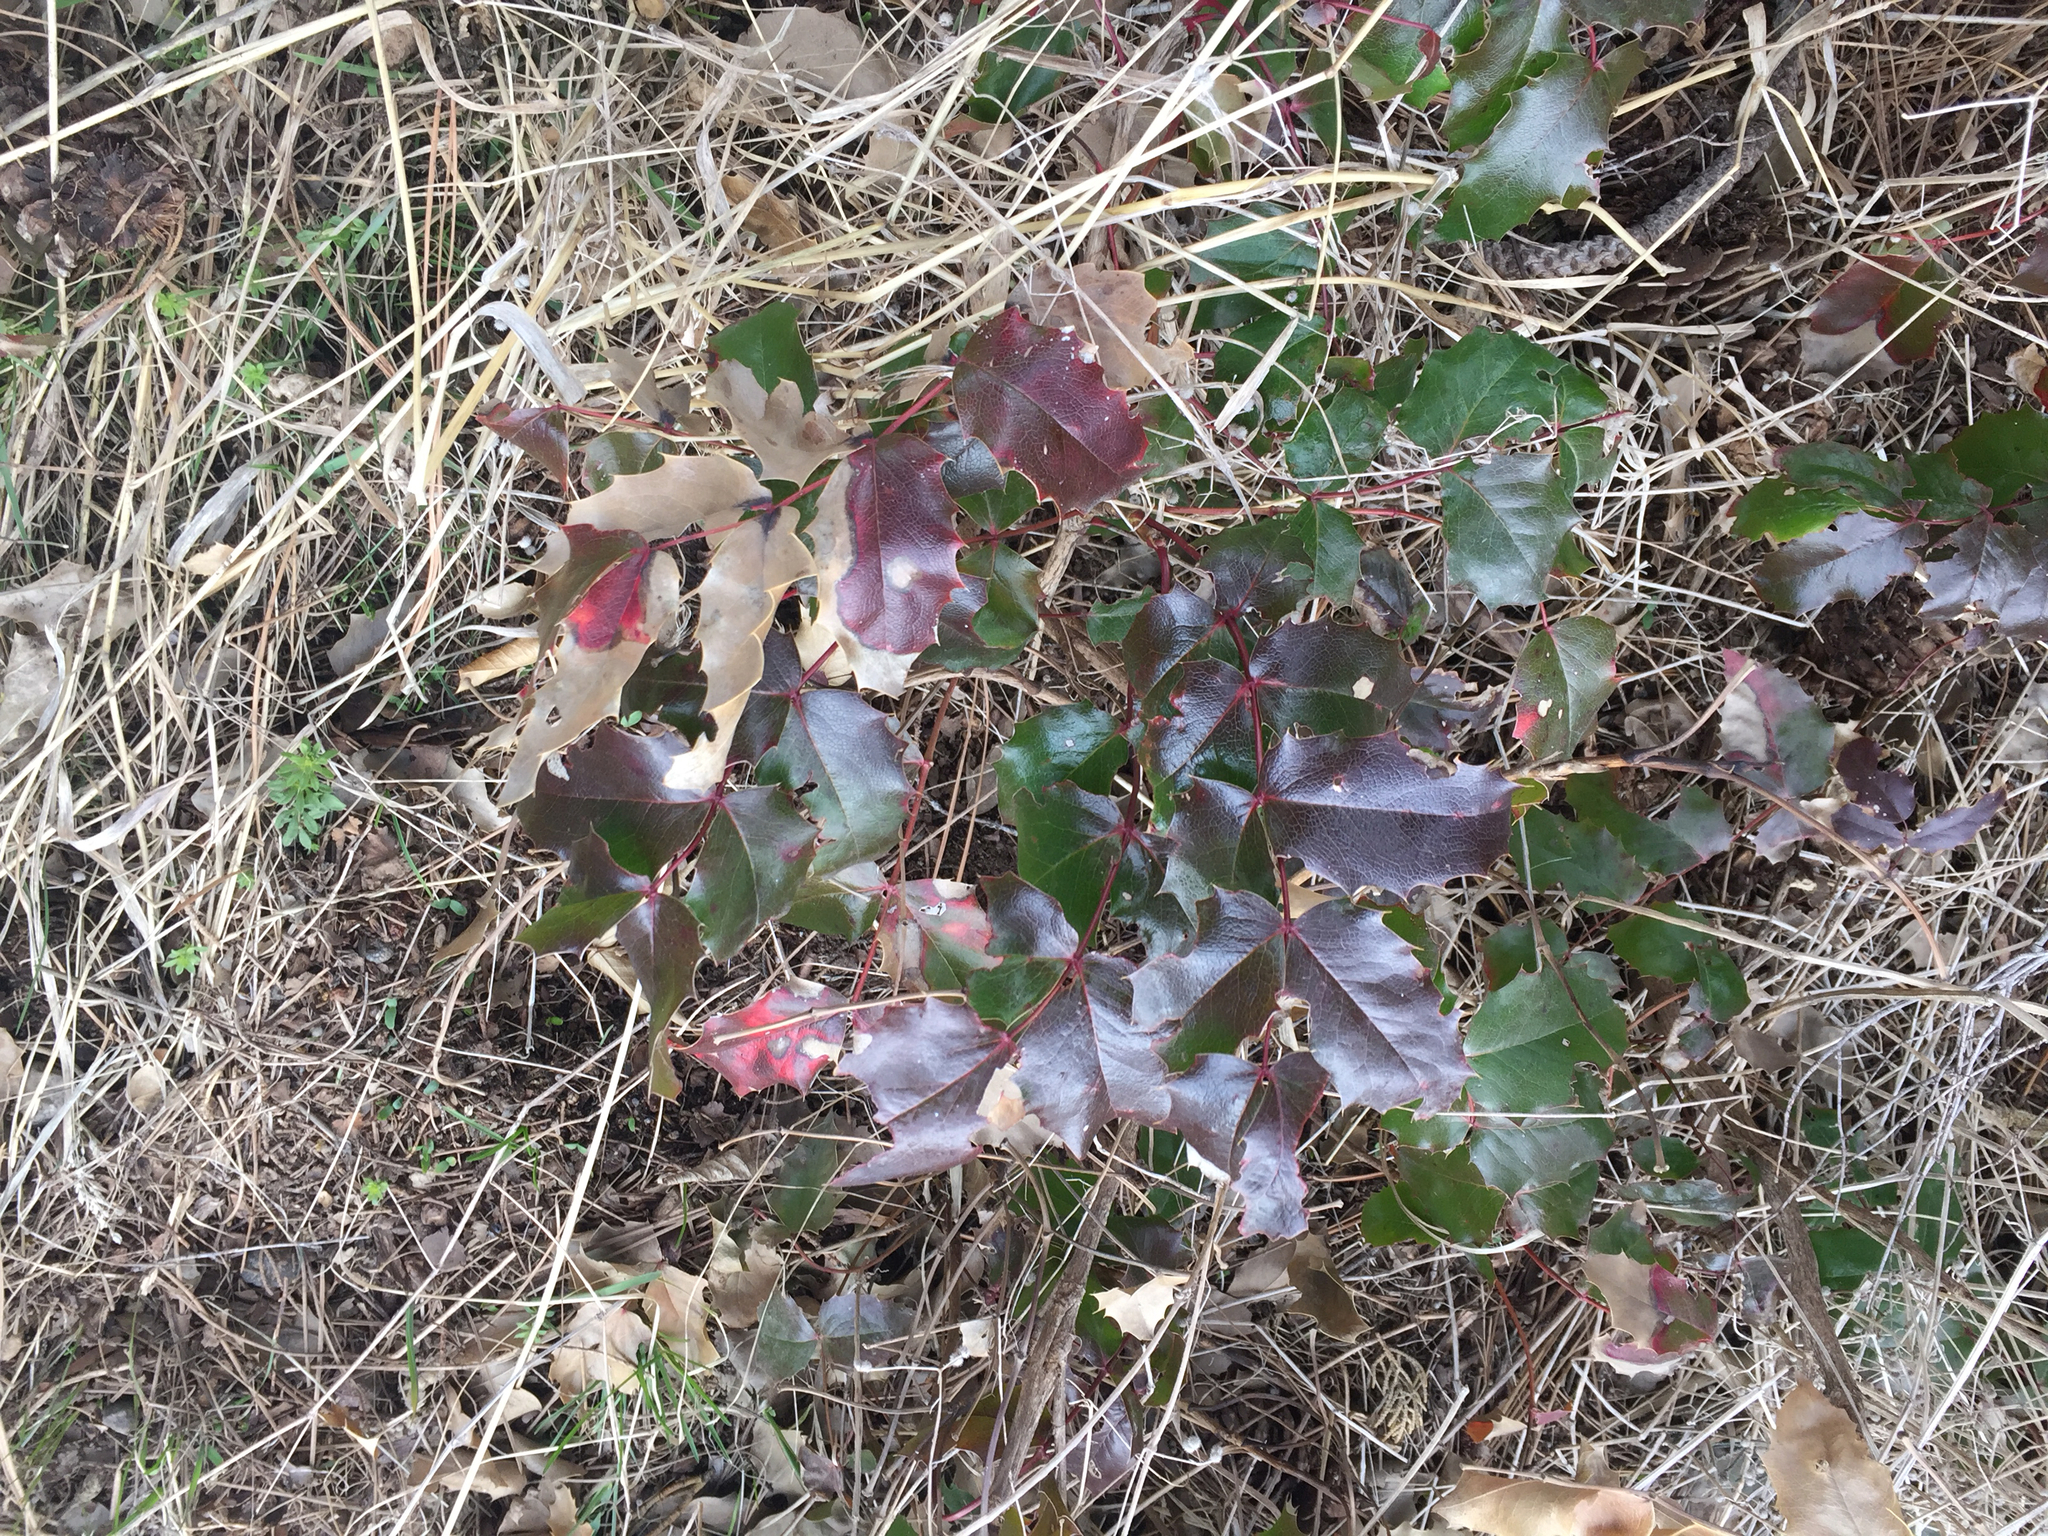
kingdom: Plantae
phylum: Tracheophyta
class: Magnoliopsida
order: Ranunculales
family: Berberidaceae
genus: Mahonia
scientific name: Mahonia aquifolium
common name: Oregon-grape
